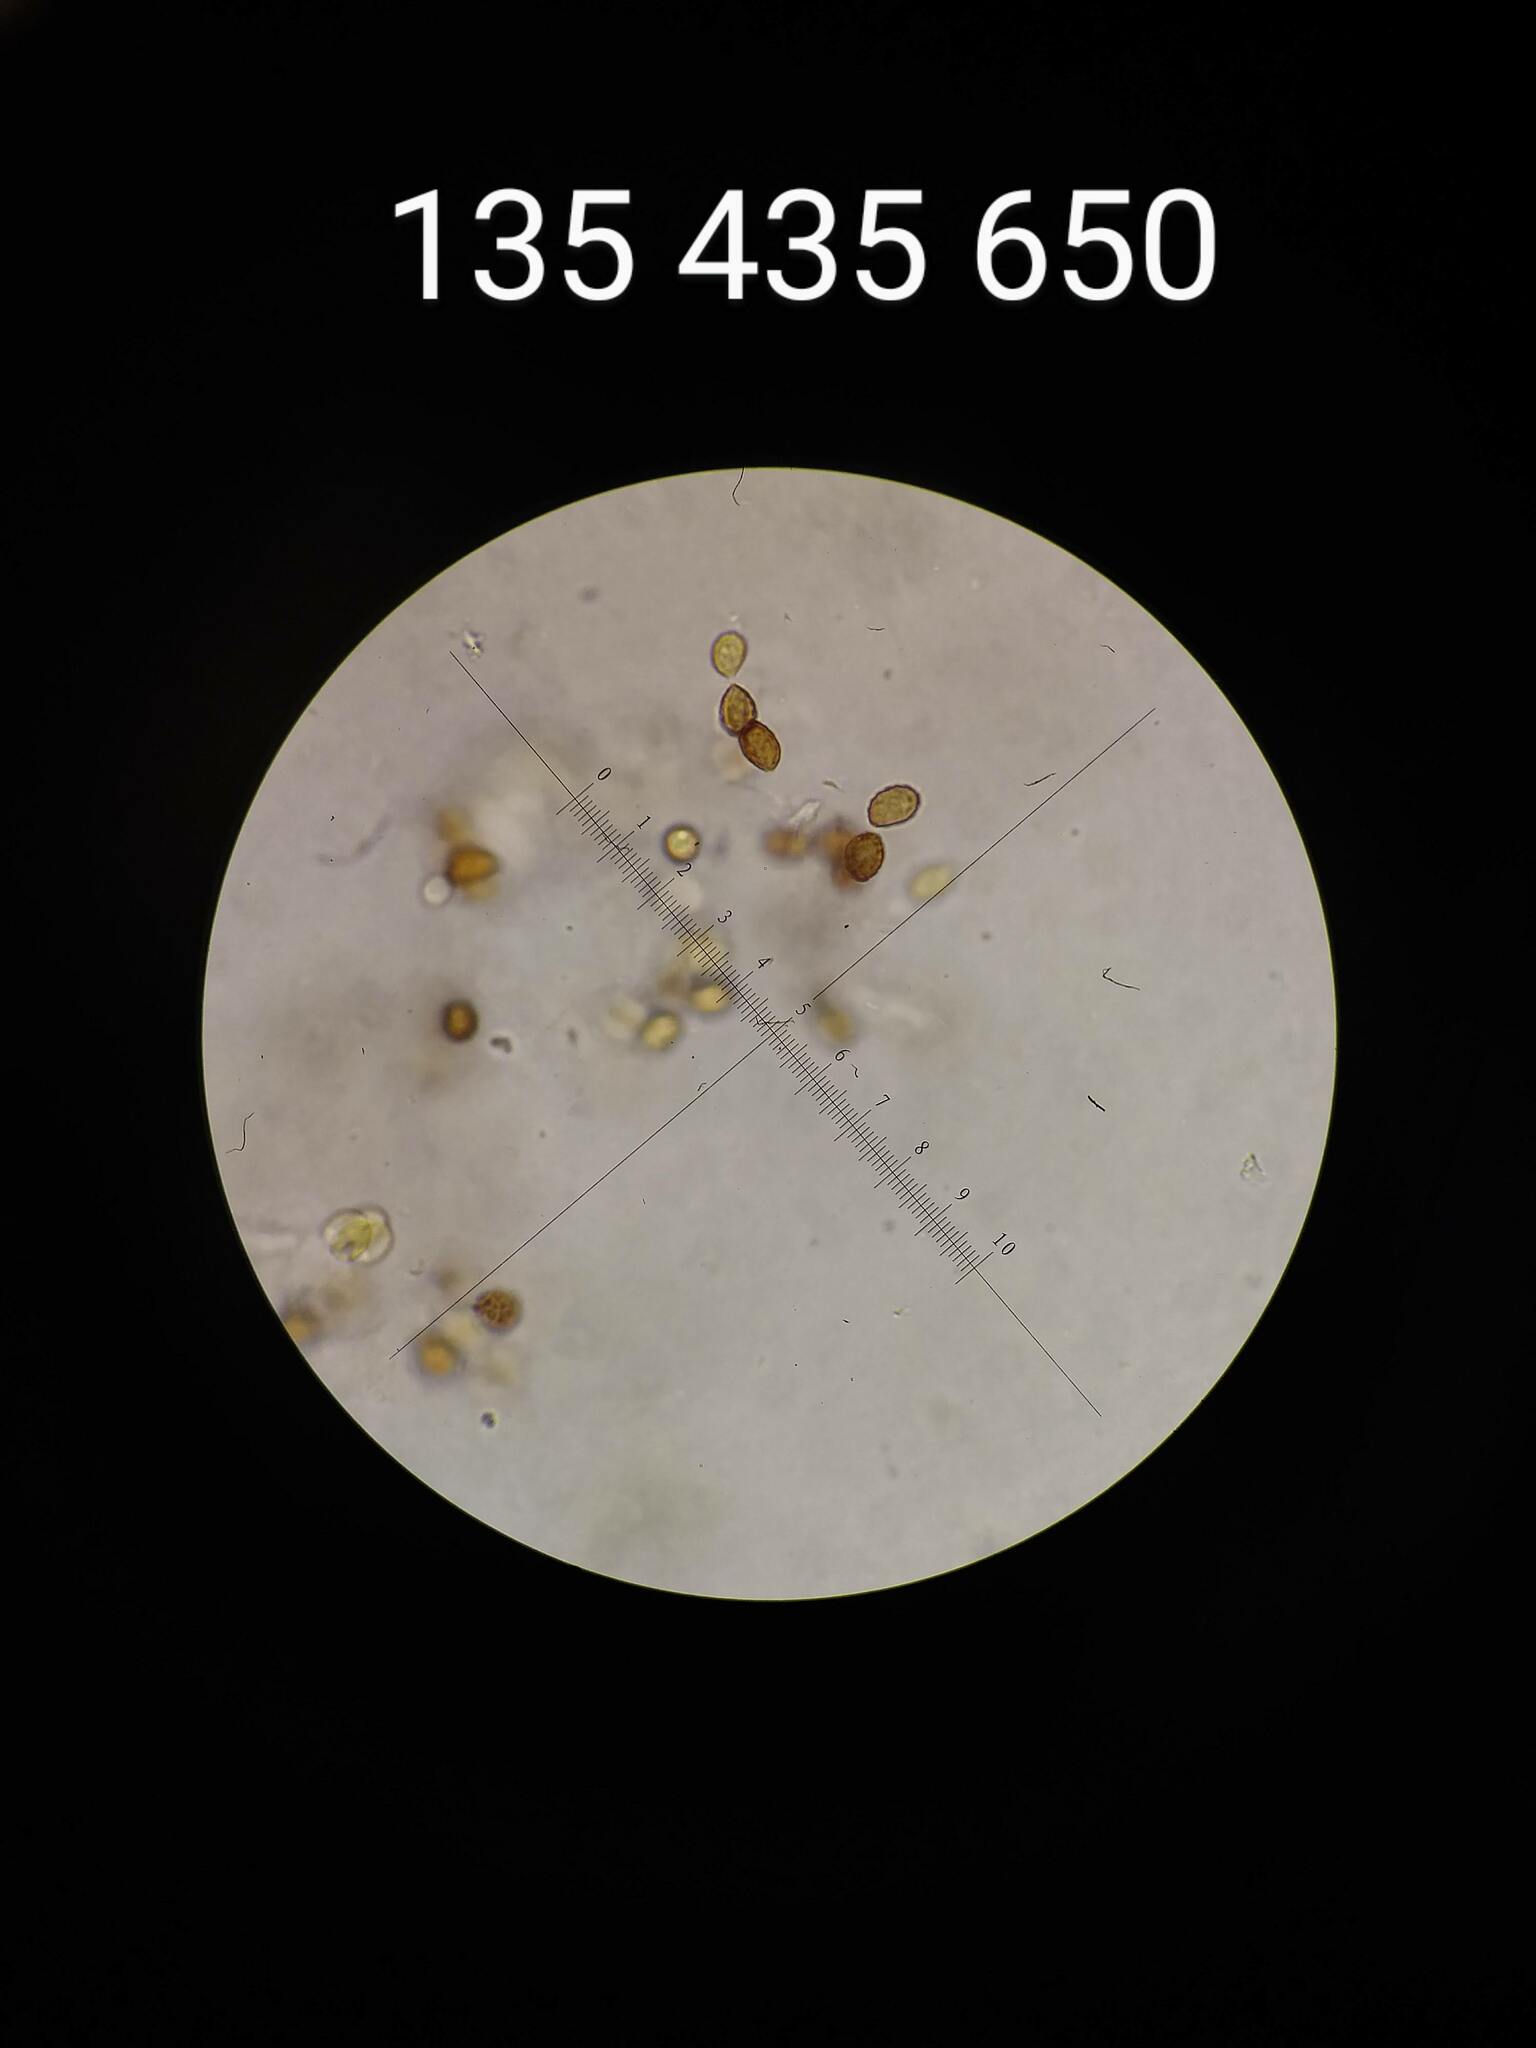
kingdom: Fungi
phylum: Basidiomycota
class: Agaricomycetes
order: Agaricales
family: Cortinariaceae
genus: Cortinarius
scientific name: Cortinarius
